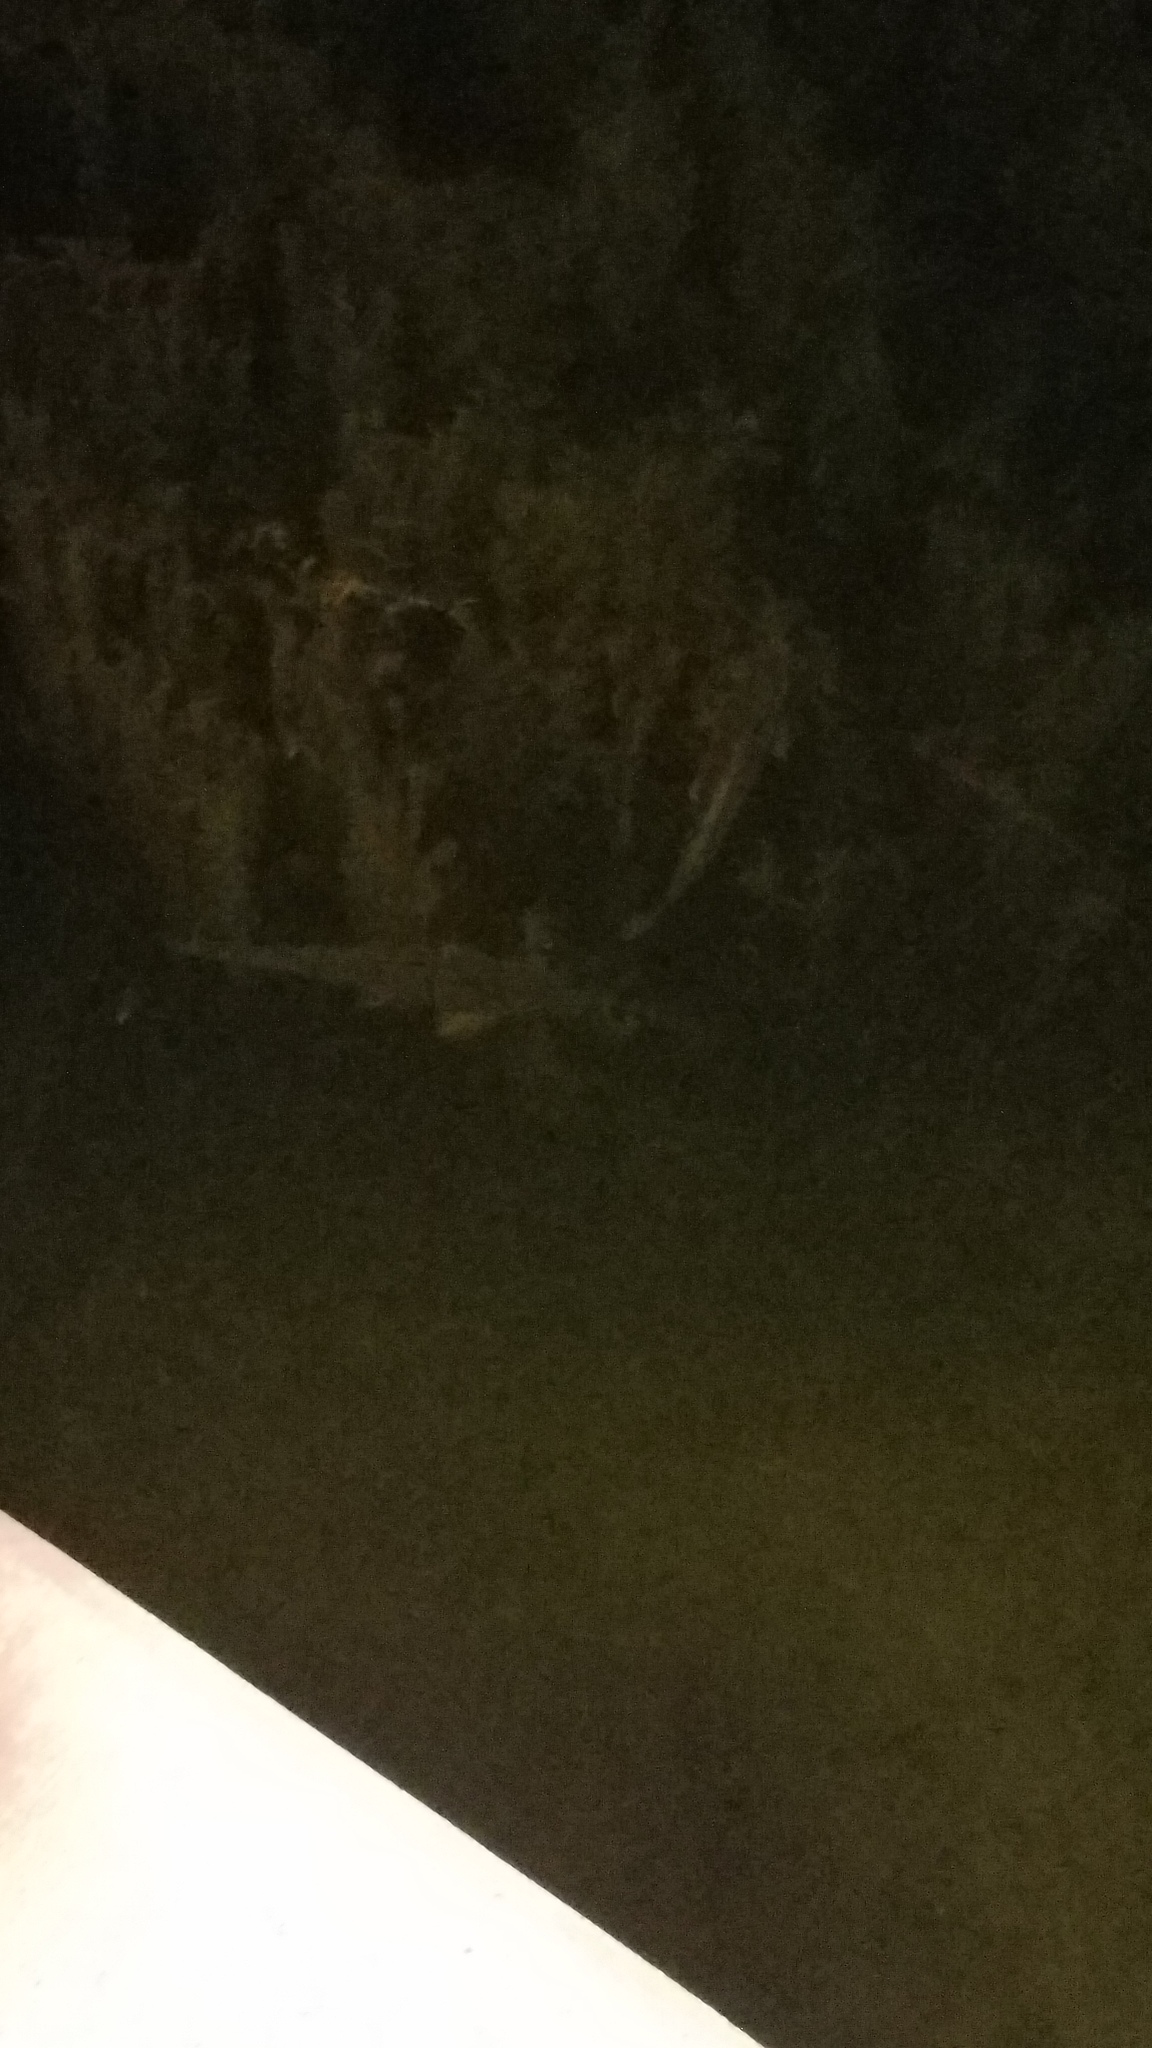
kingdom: Animalia
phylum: Chordata
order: Cypriniformes
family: Cyprinidae
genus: Cyprinus
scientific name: Cyprinus carpio
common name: Common carp
